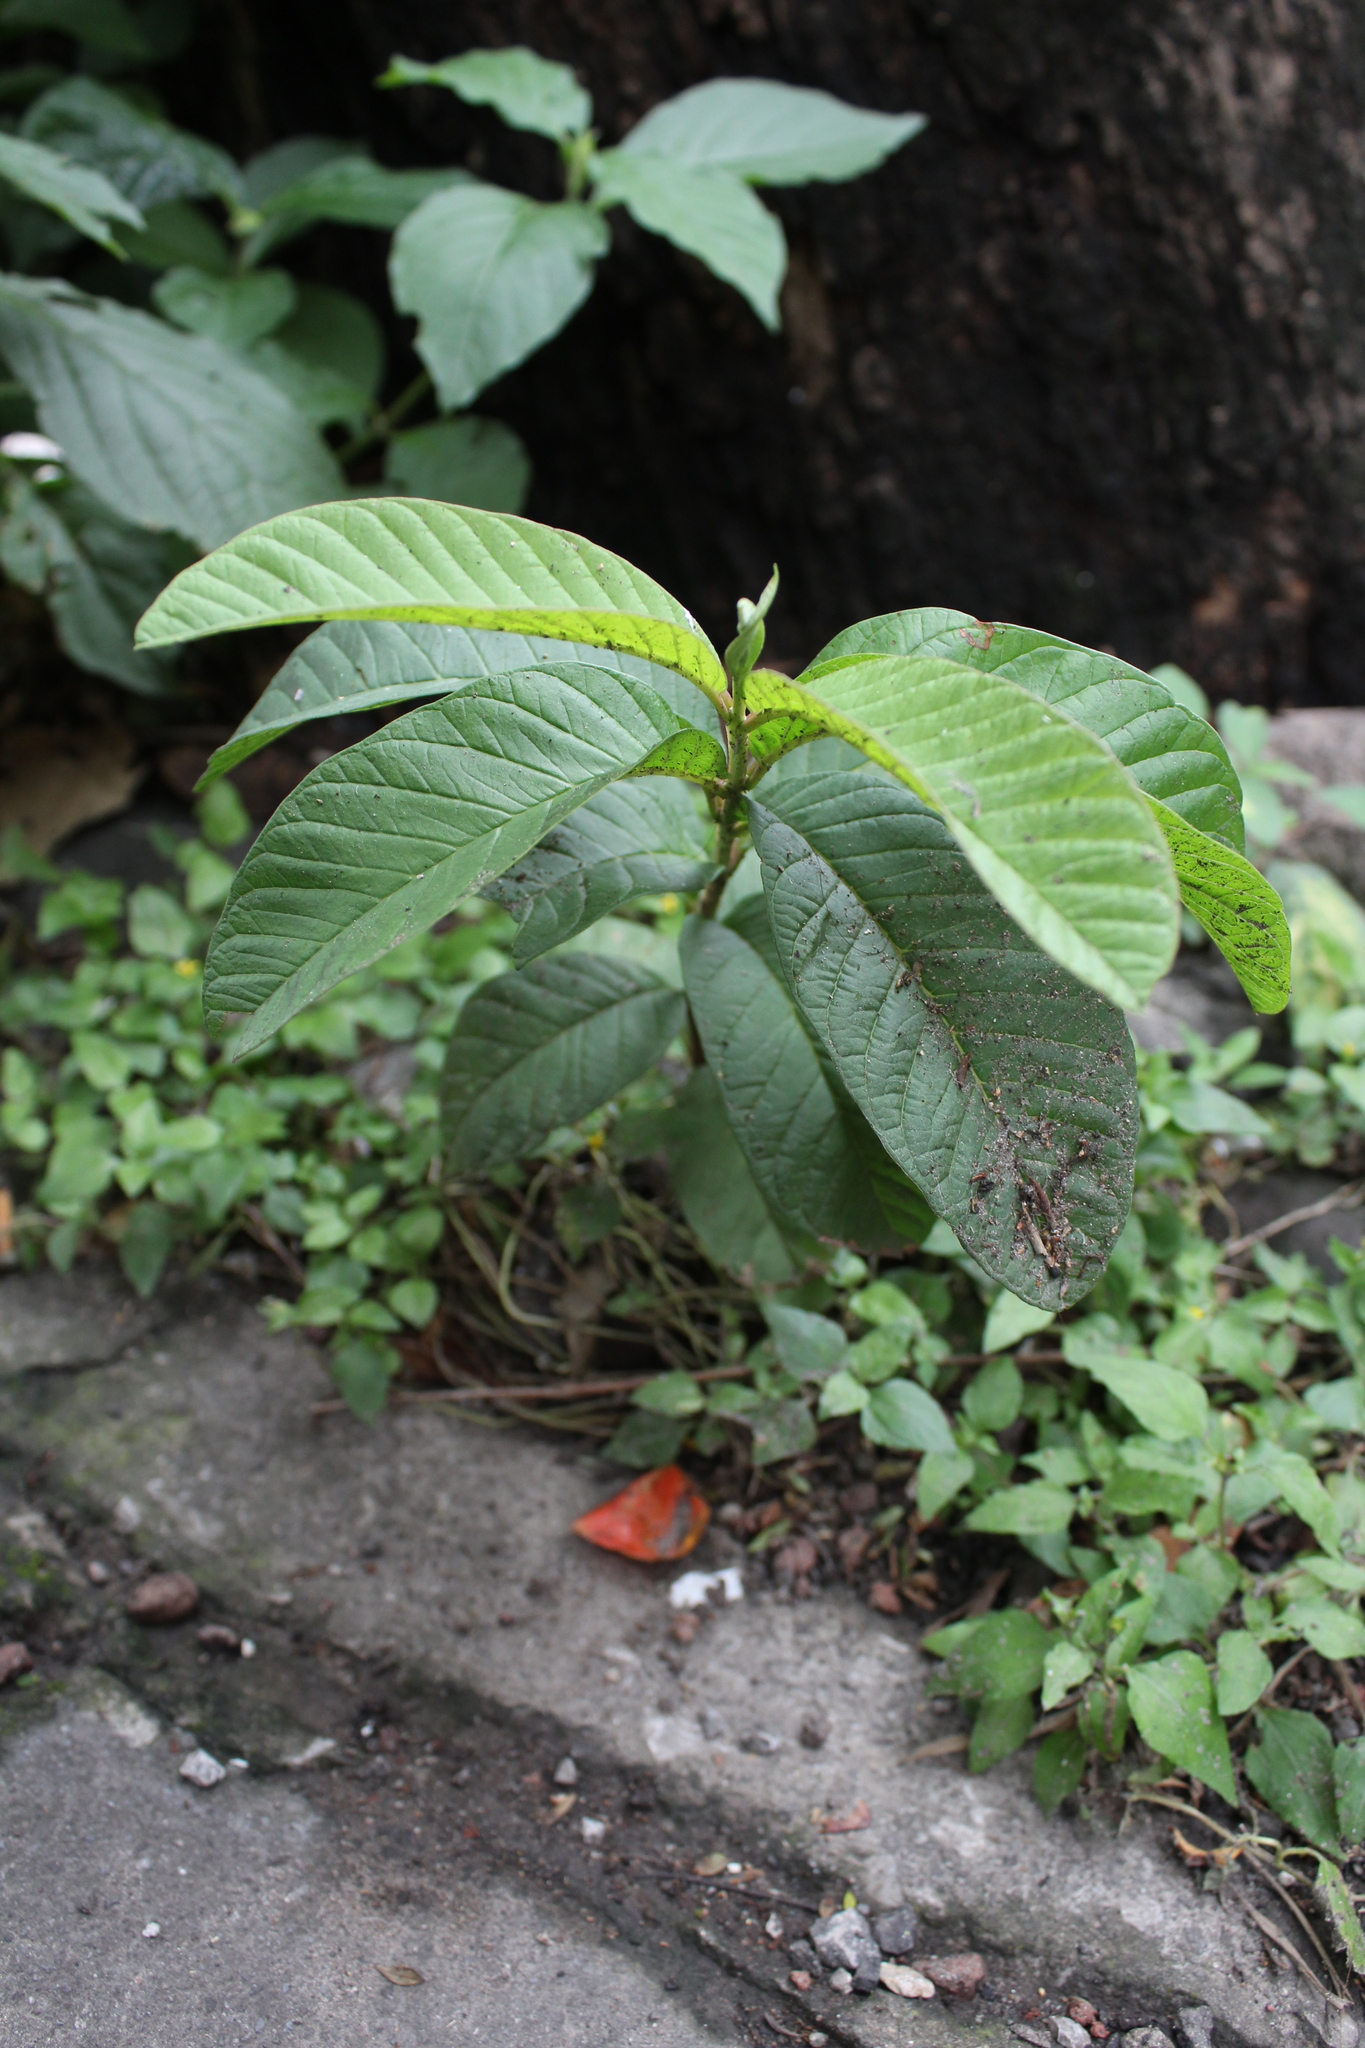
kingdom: Plantae
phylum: Tracheophyta
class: Magnoliopsida
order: Myrtales
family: Myrtaceae
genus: Psidium
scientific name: Psidium guajava
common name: Guava
